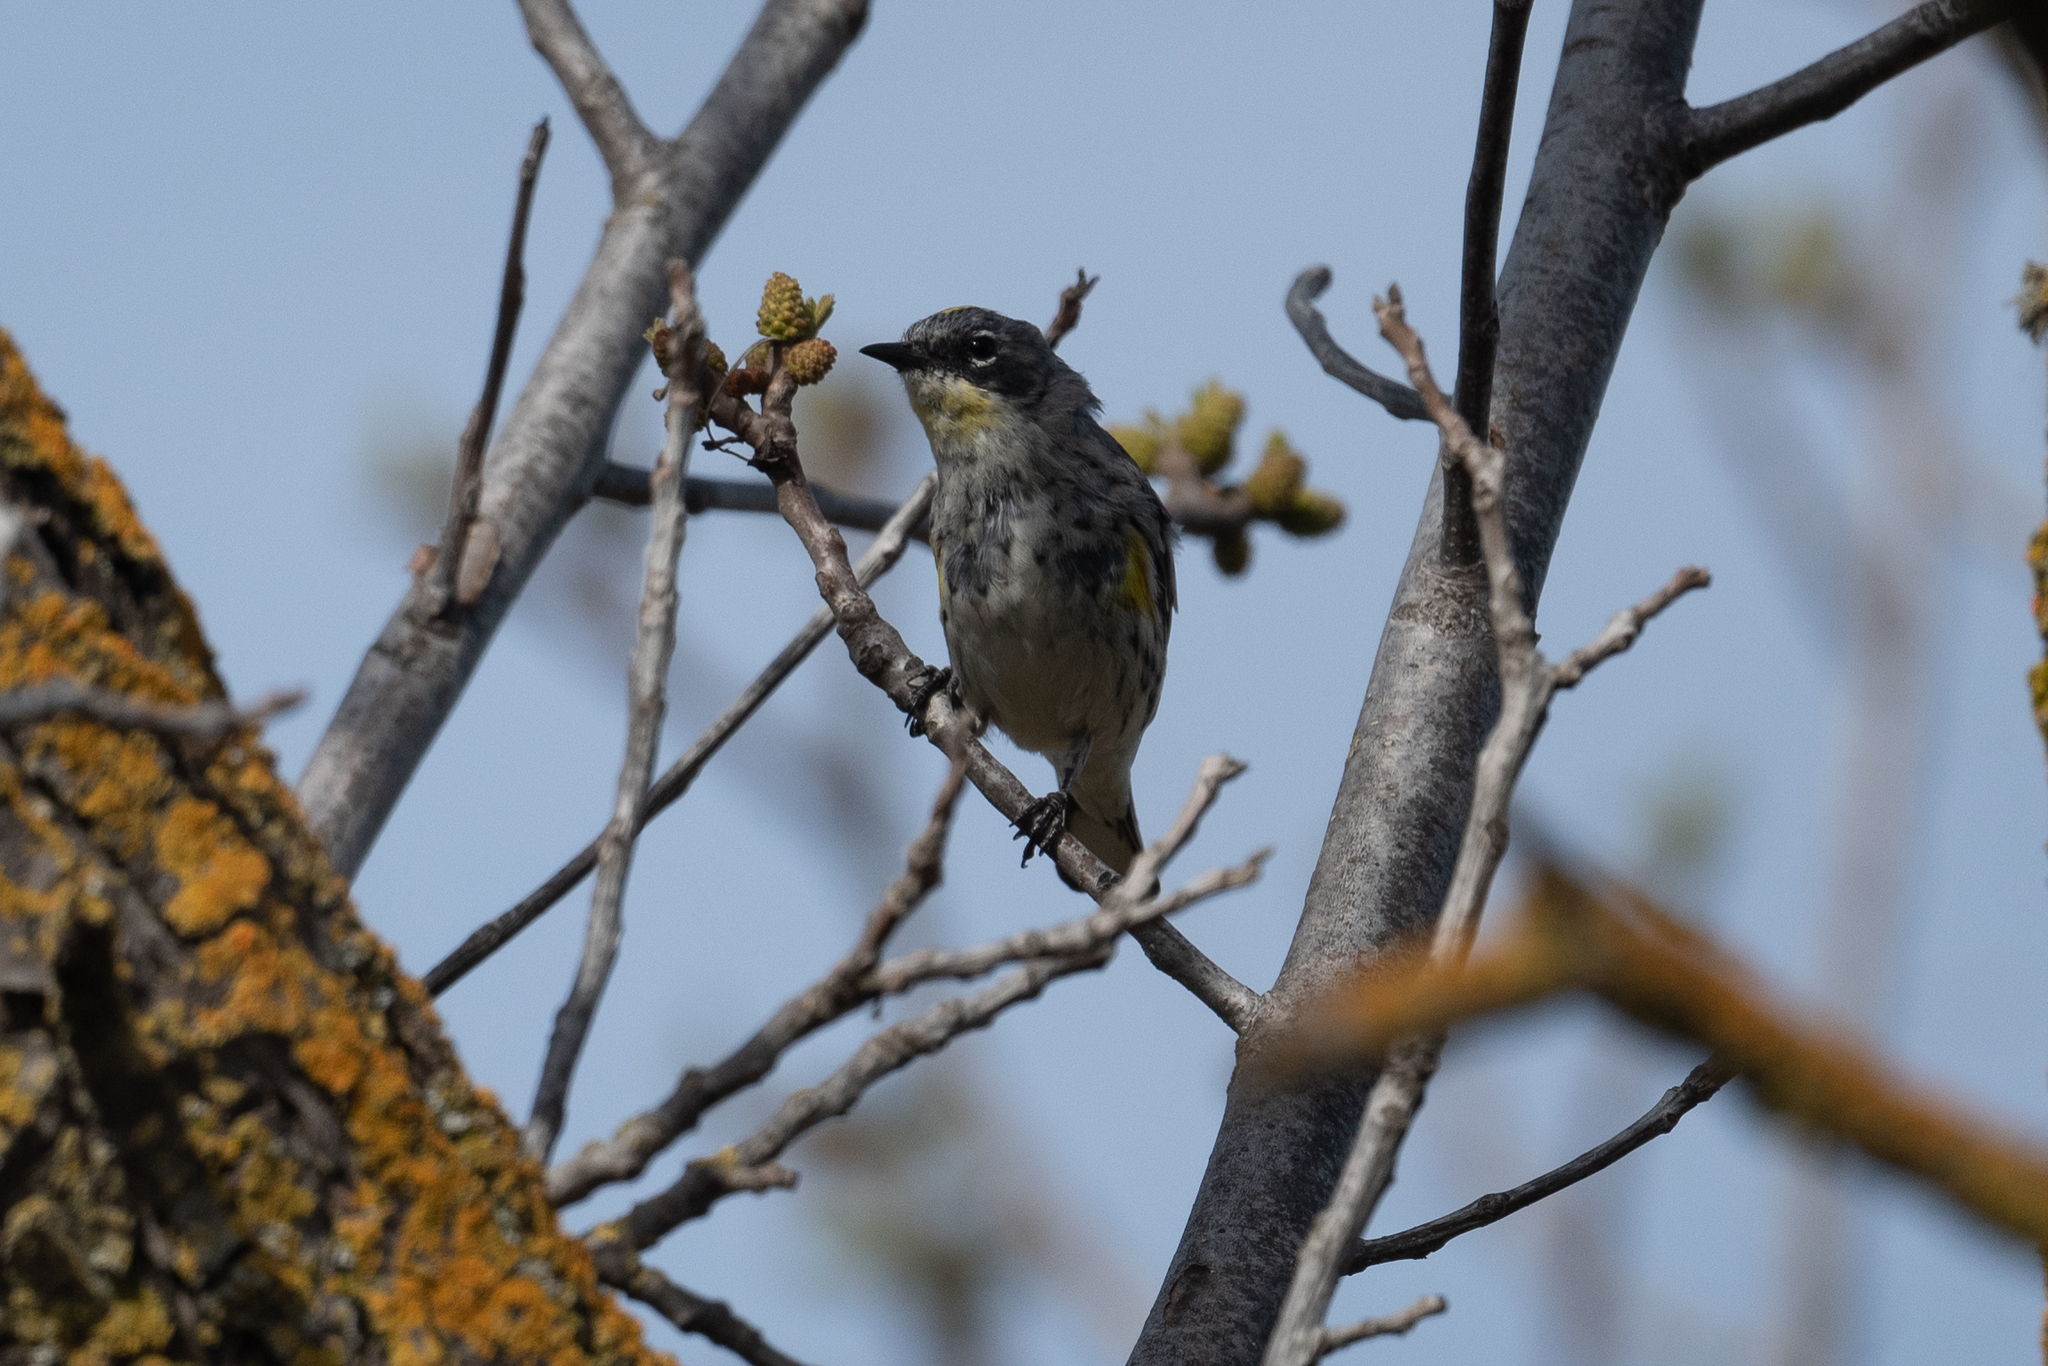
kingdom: Animalia
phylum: Chordata
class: Aves
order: Passeriformes
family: Parulidae
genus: Setophaga
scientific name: Setophaga coronata
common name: Myrtle warbler
